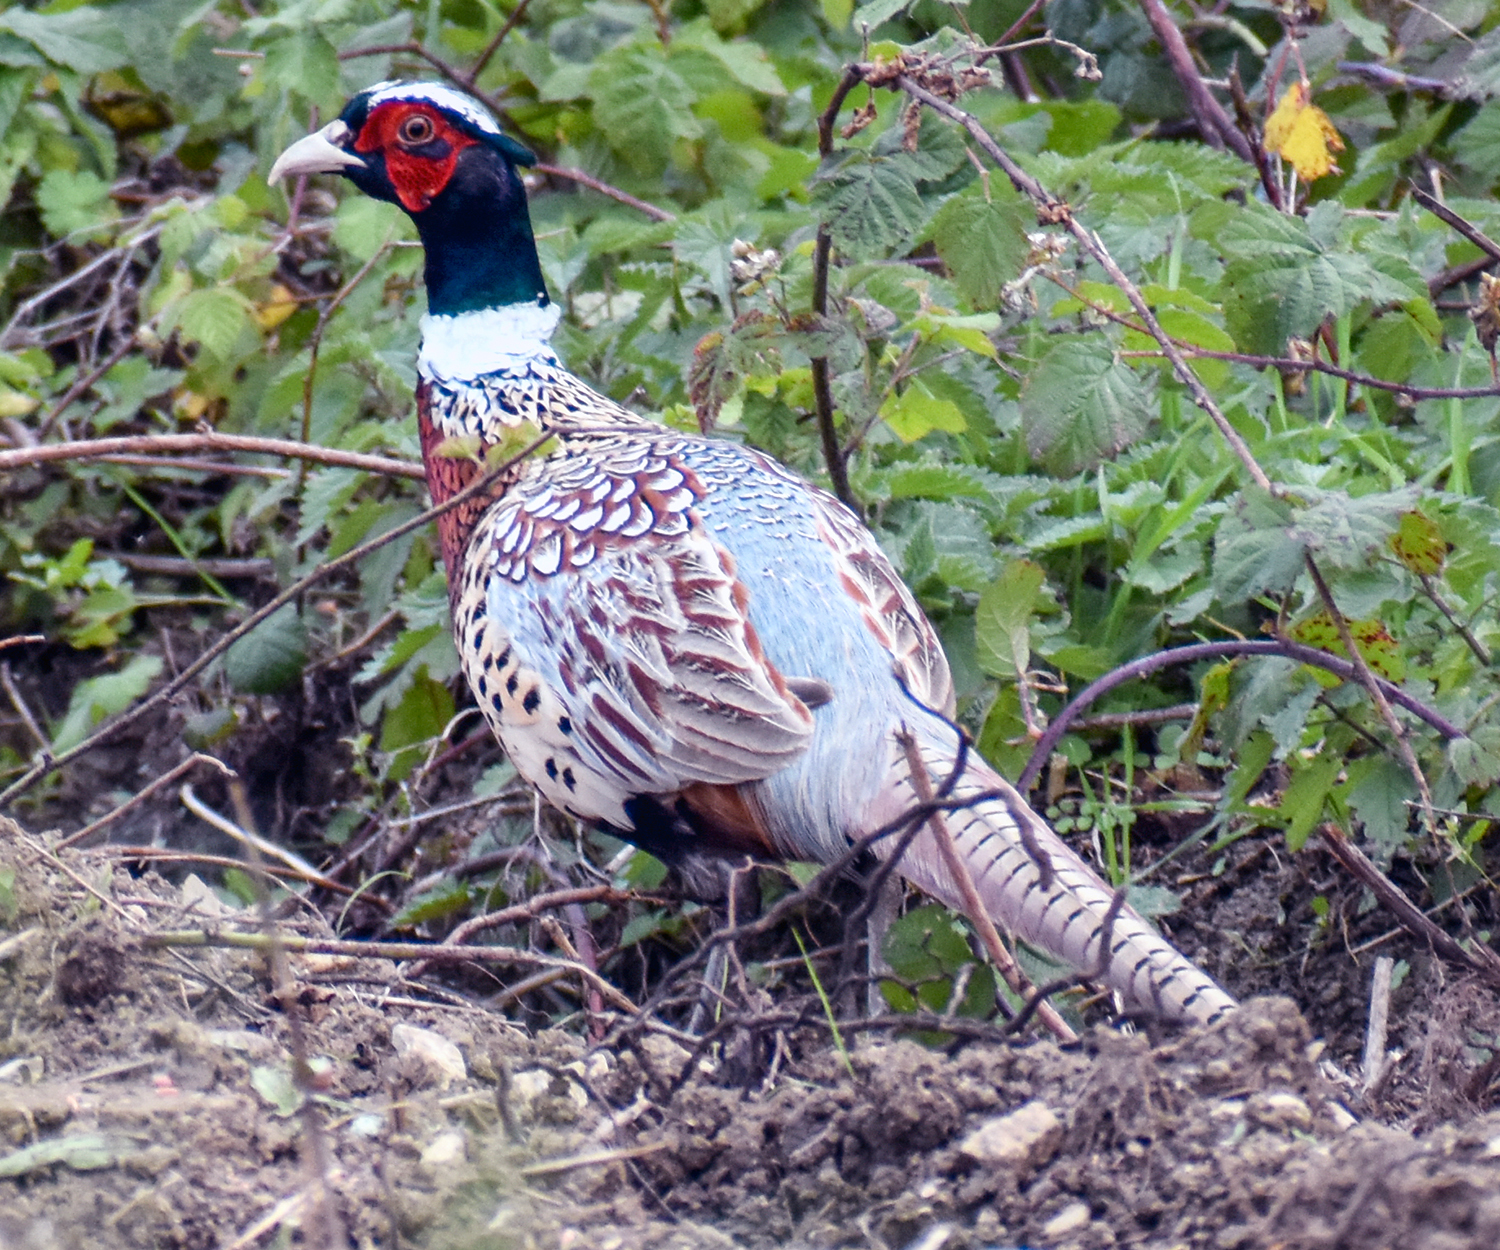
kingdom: Animalia
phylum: Chordata
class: Aves
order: Galliformes
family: Phasianidae
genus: Phasianus
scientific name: Phasianus colchicus
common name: Common pheasant
